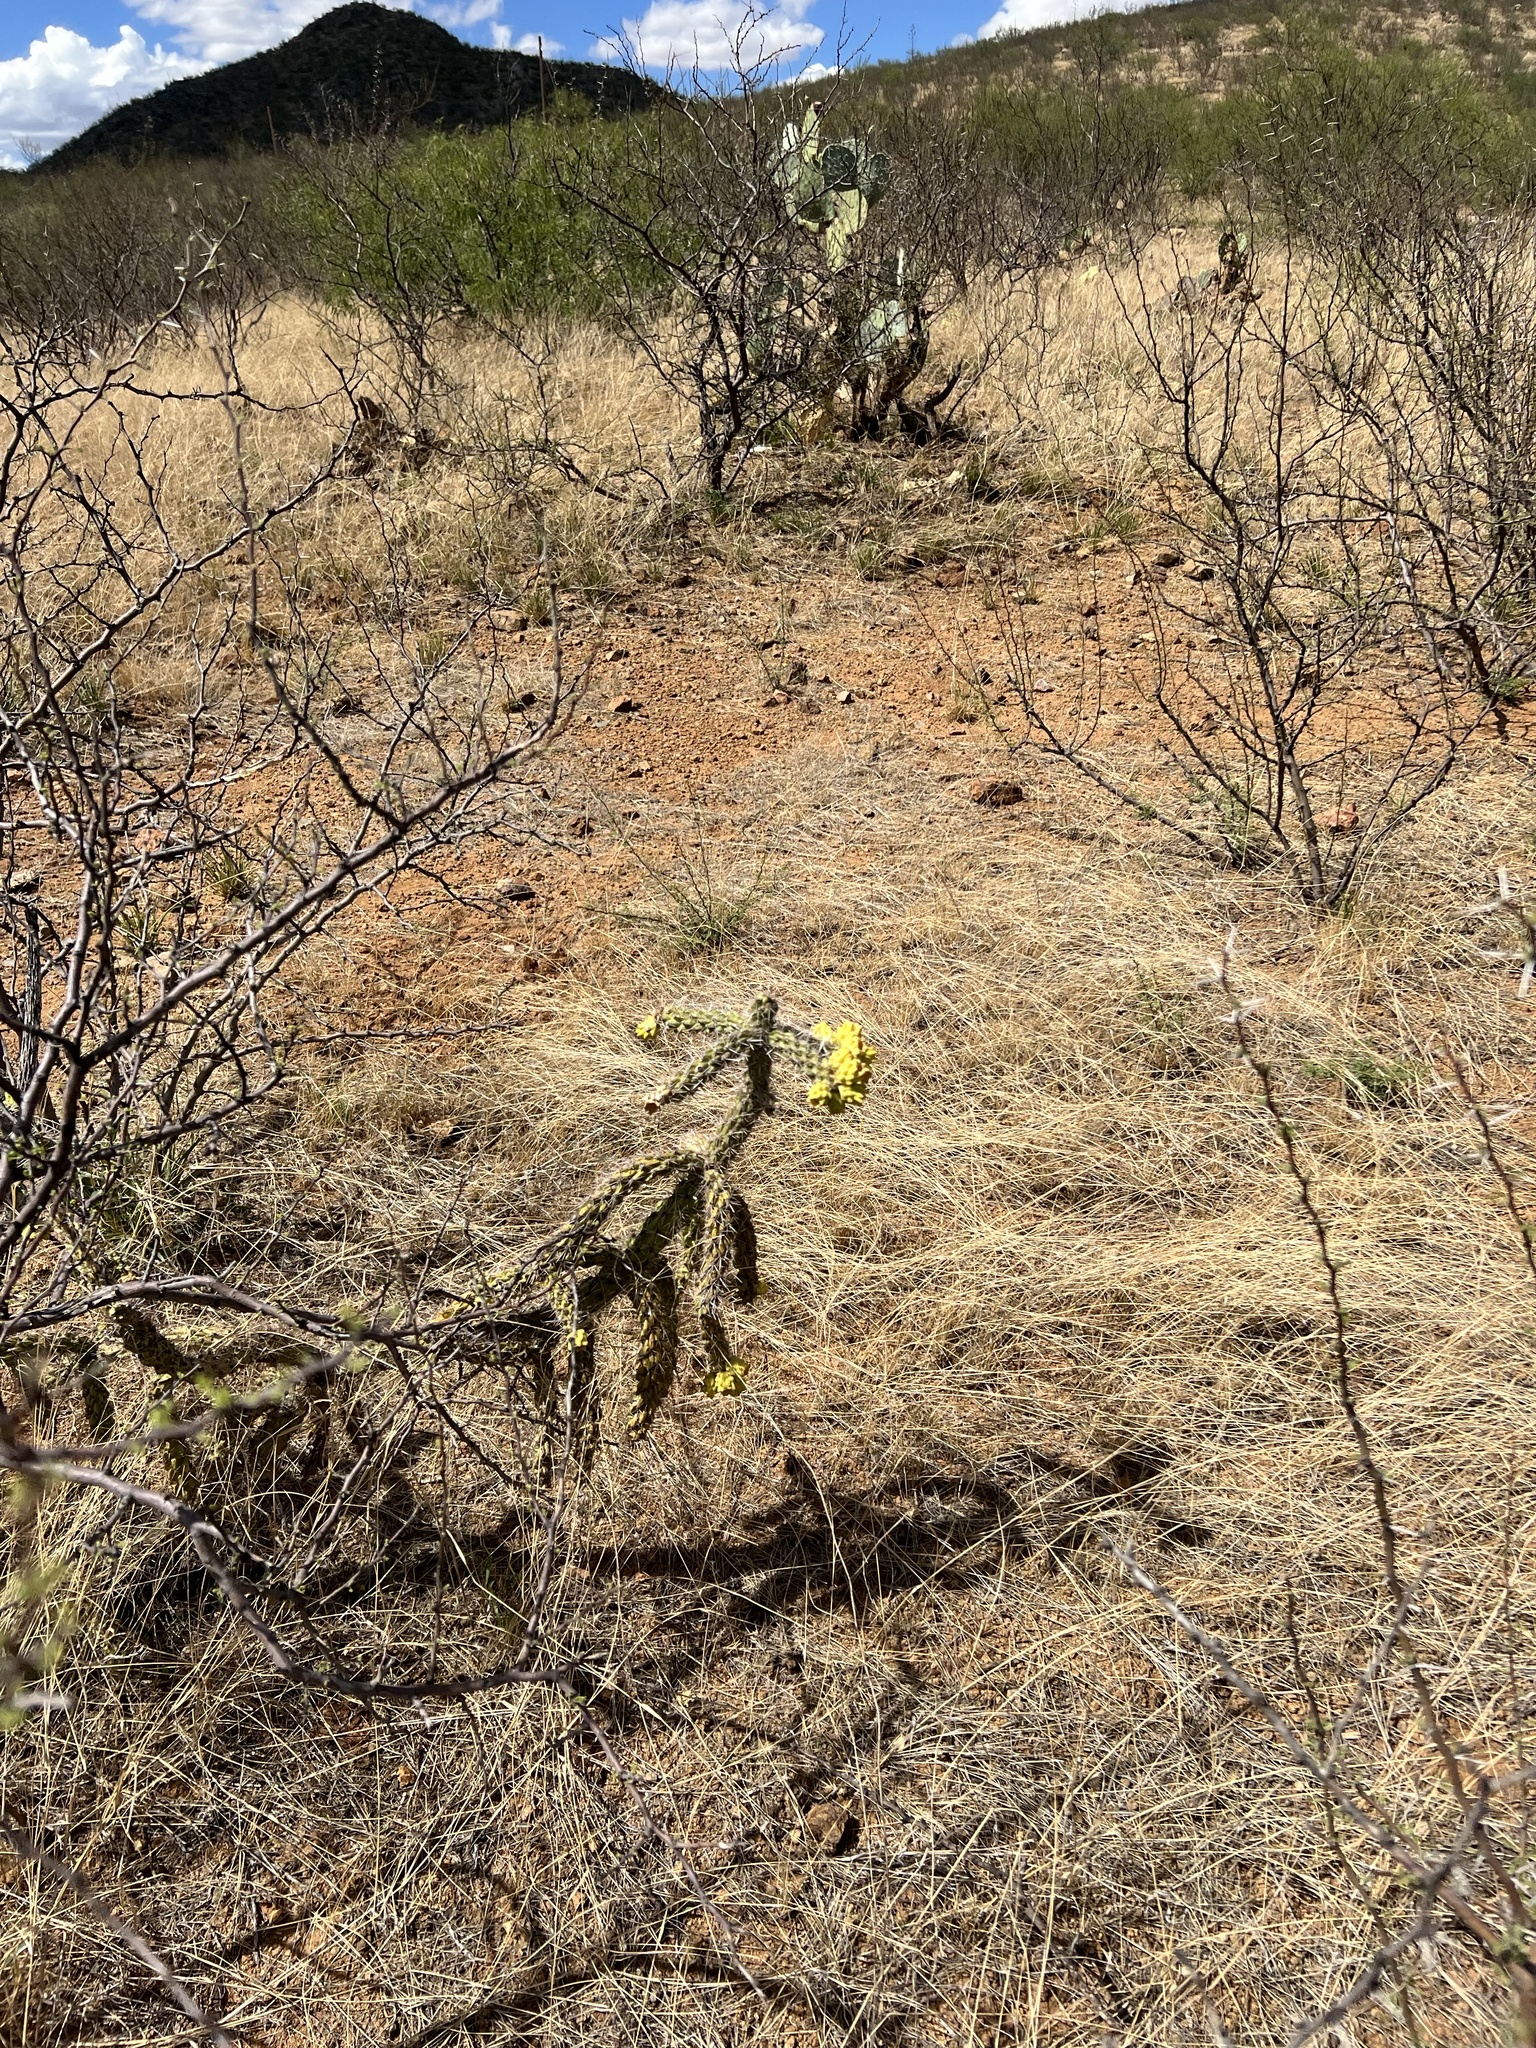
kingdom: Plantae
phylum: Tracheophyta
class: Magnoliopsida
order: Caryophyllales
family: Cactaceae
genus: Cylindropuntia
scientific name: Cylindropuntia imbricata
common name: Candelabrum cactus
